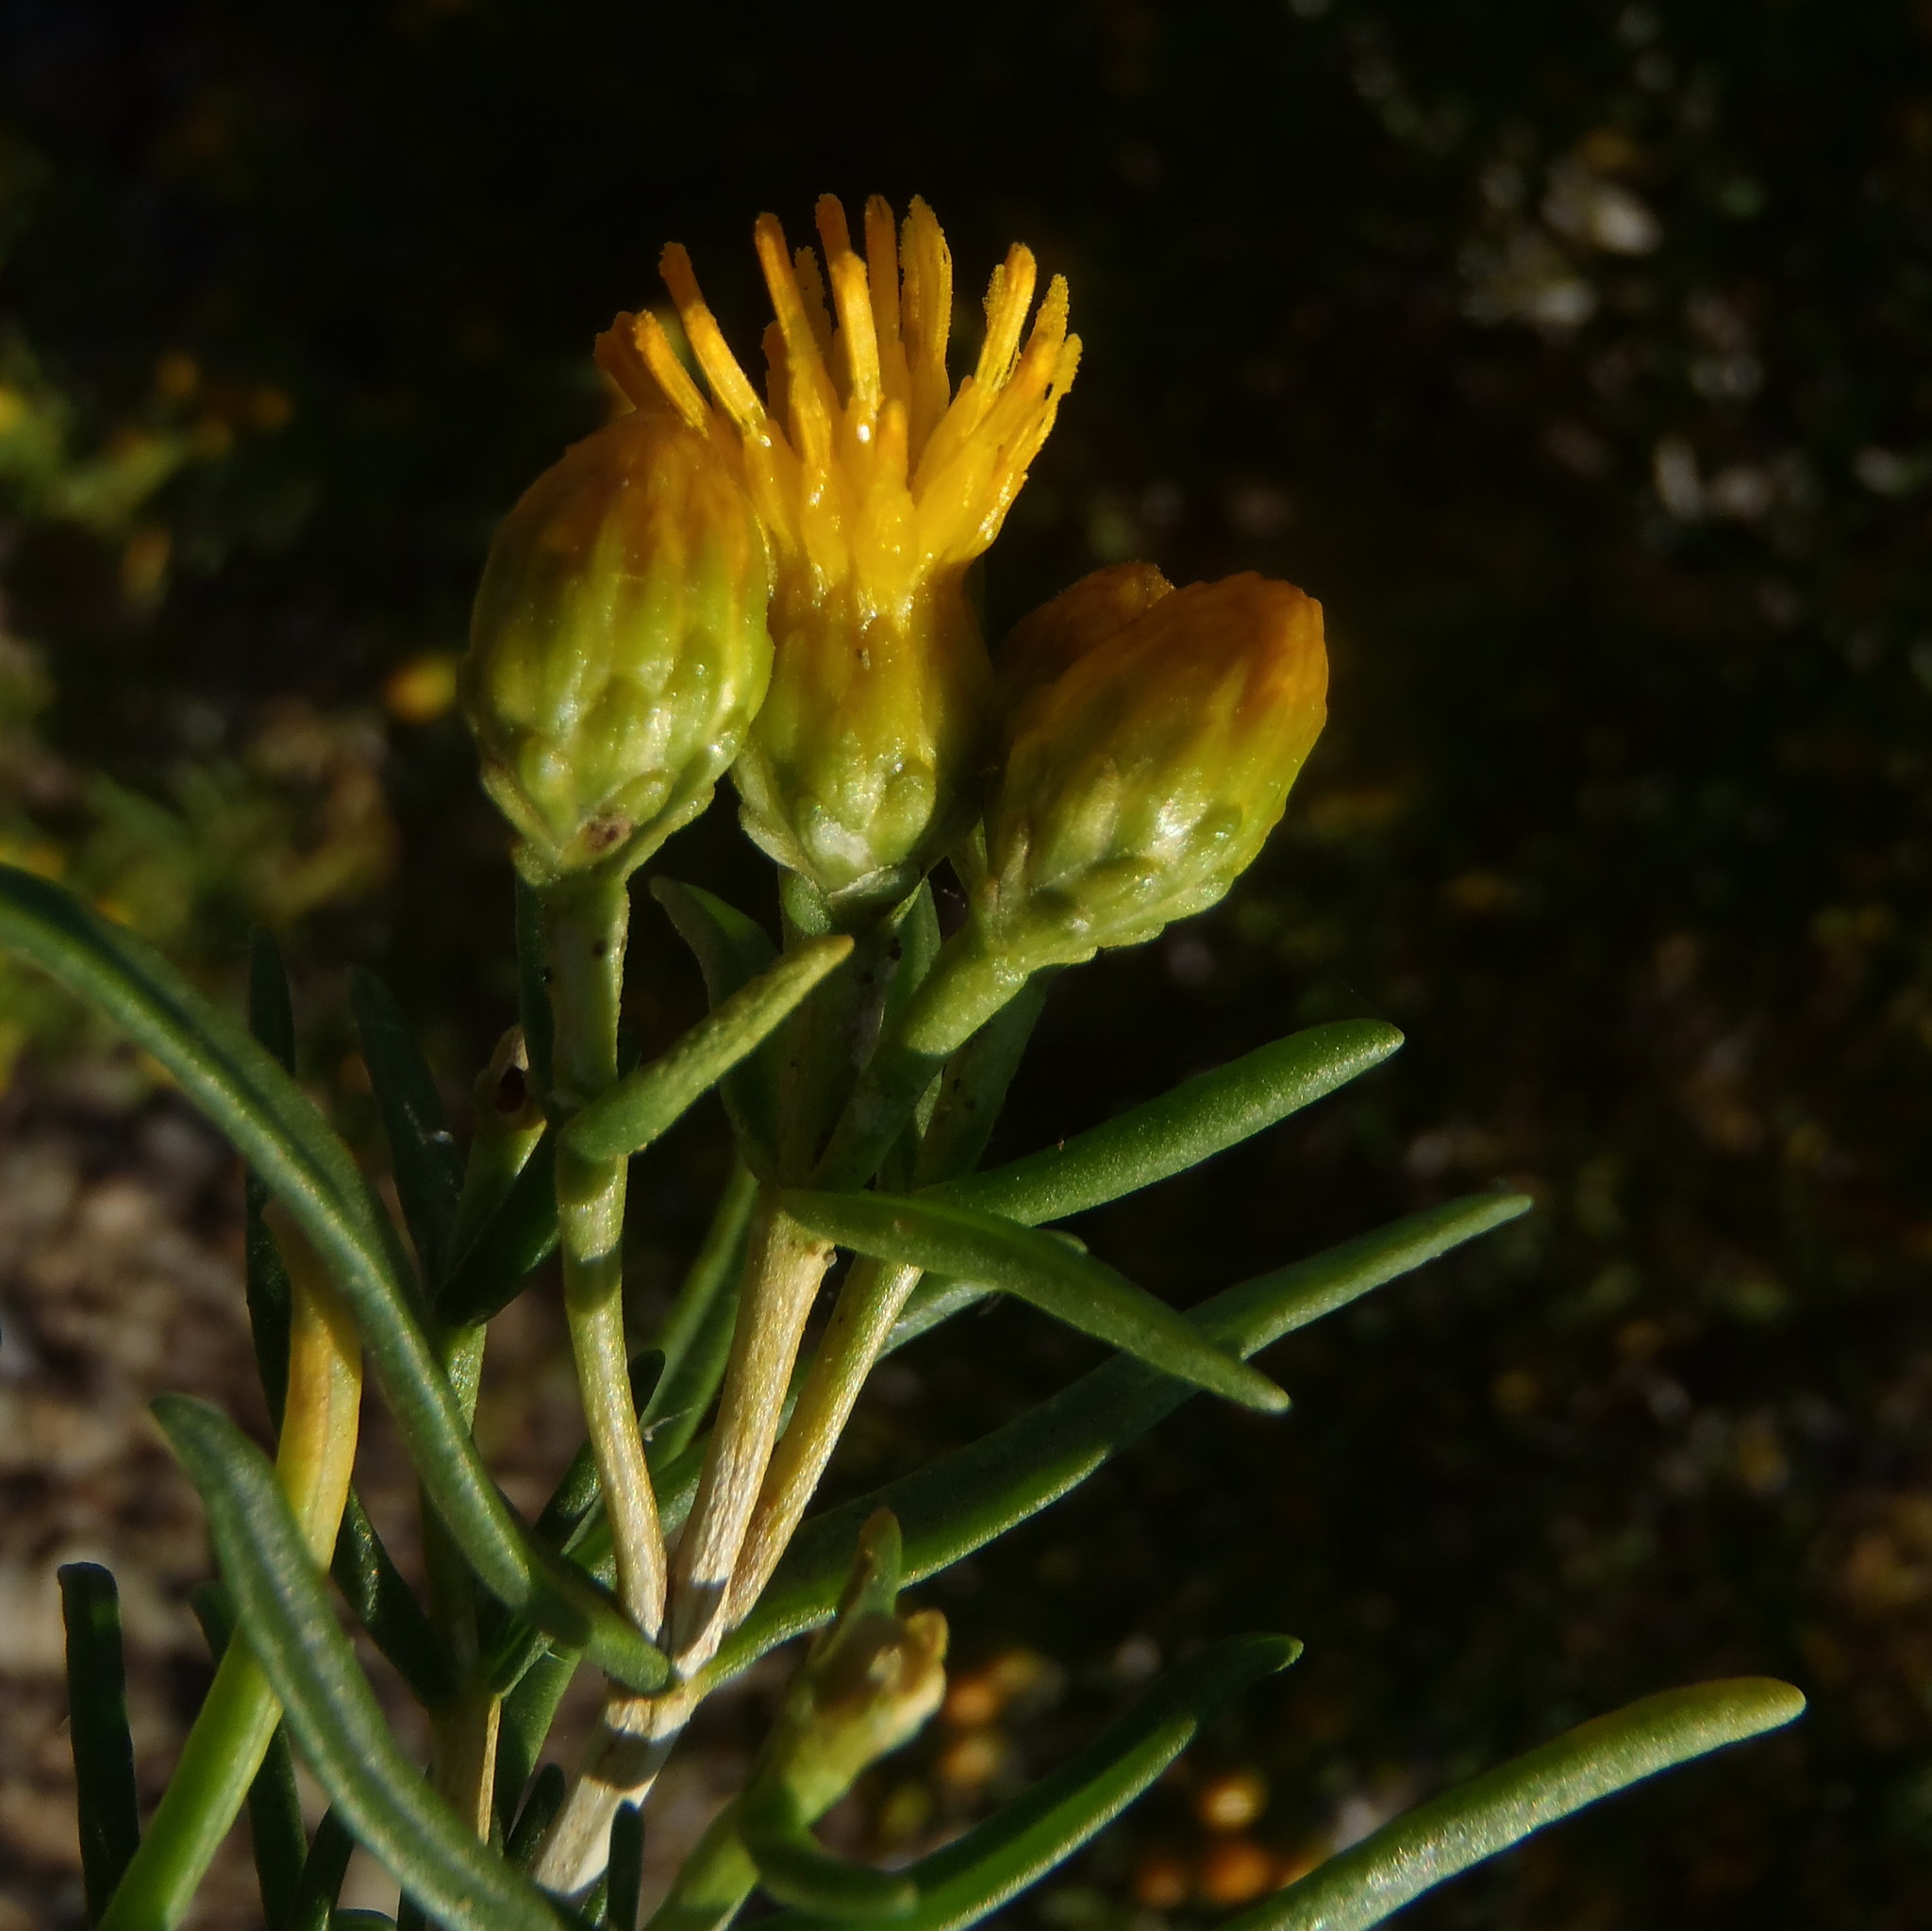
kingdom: Plantae
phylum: Tracheophyta
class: Magnoliopsida
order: Asterales
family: Asteraceae
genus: Pteronia
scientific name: Pteronia pallens
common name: Scholtzbush
